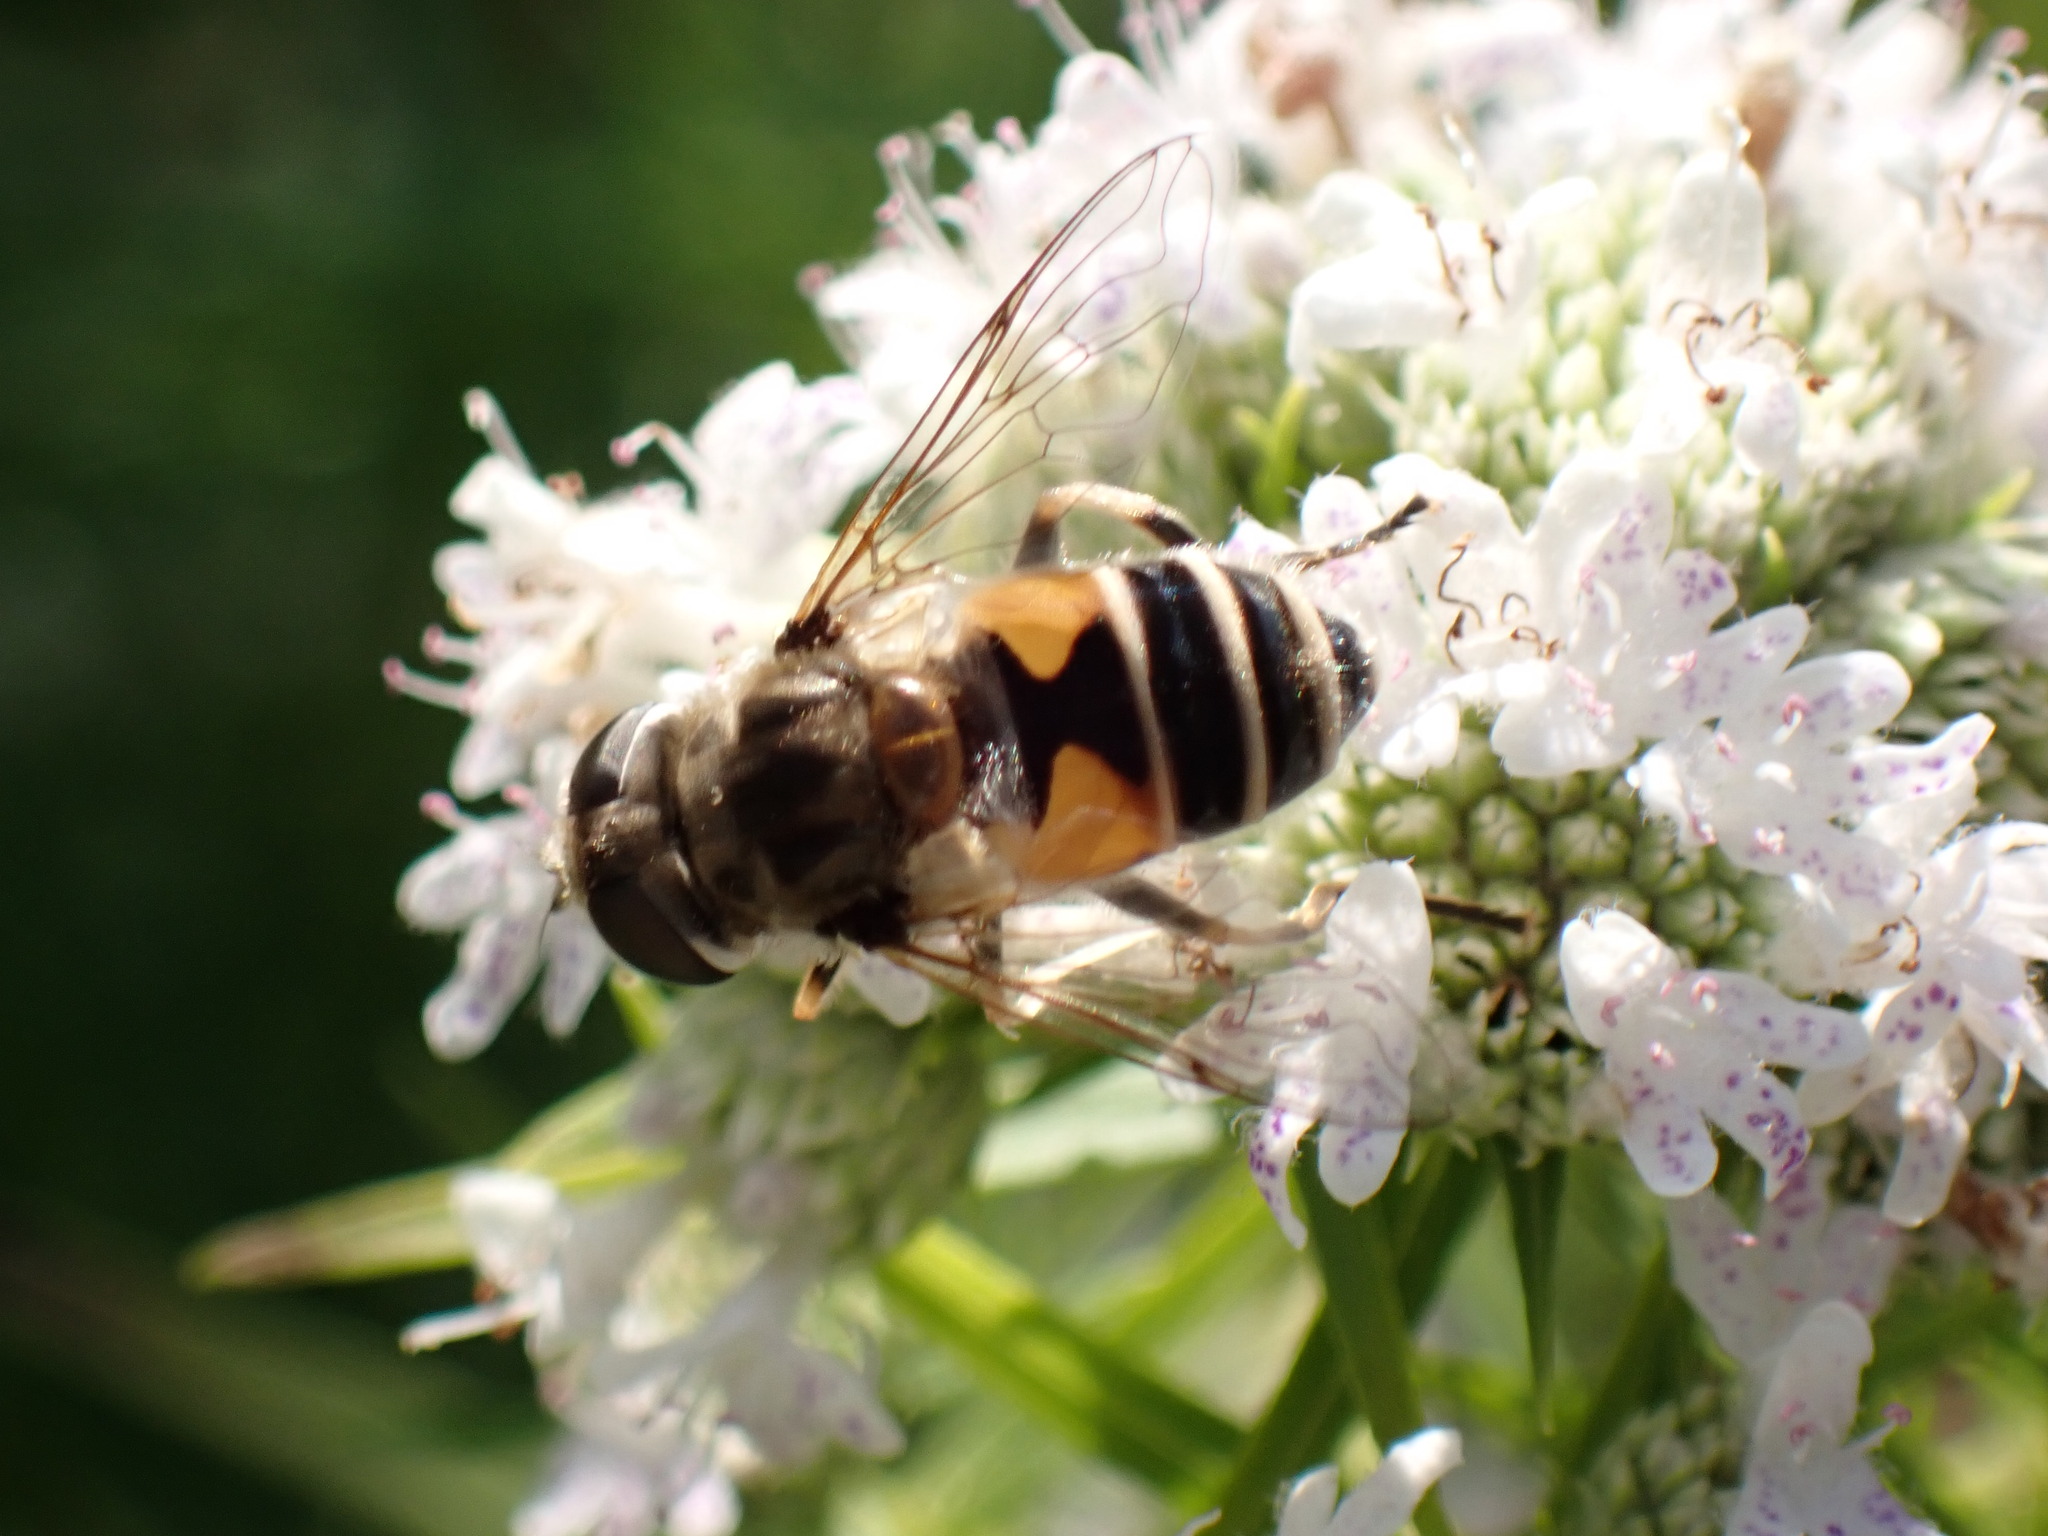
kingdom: Animalia
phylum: Arthropoda
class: Insecta
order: Diptera
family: Syrphidae
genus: Eristalis
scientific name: Eristalis arbustorum
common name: Hover fly
